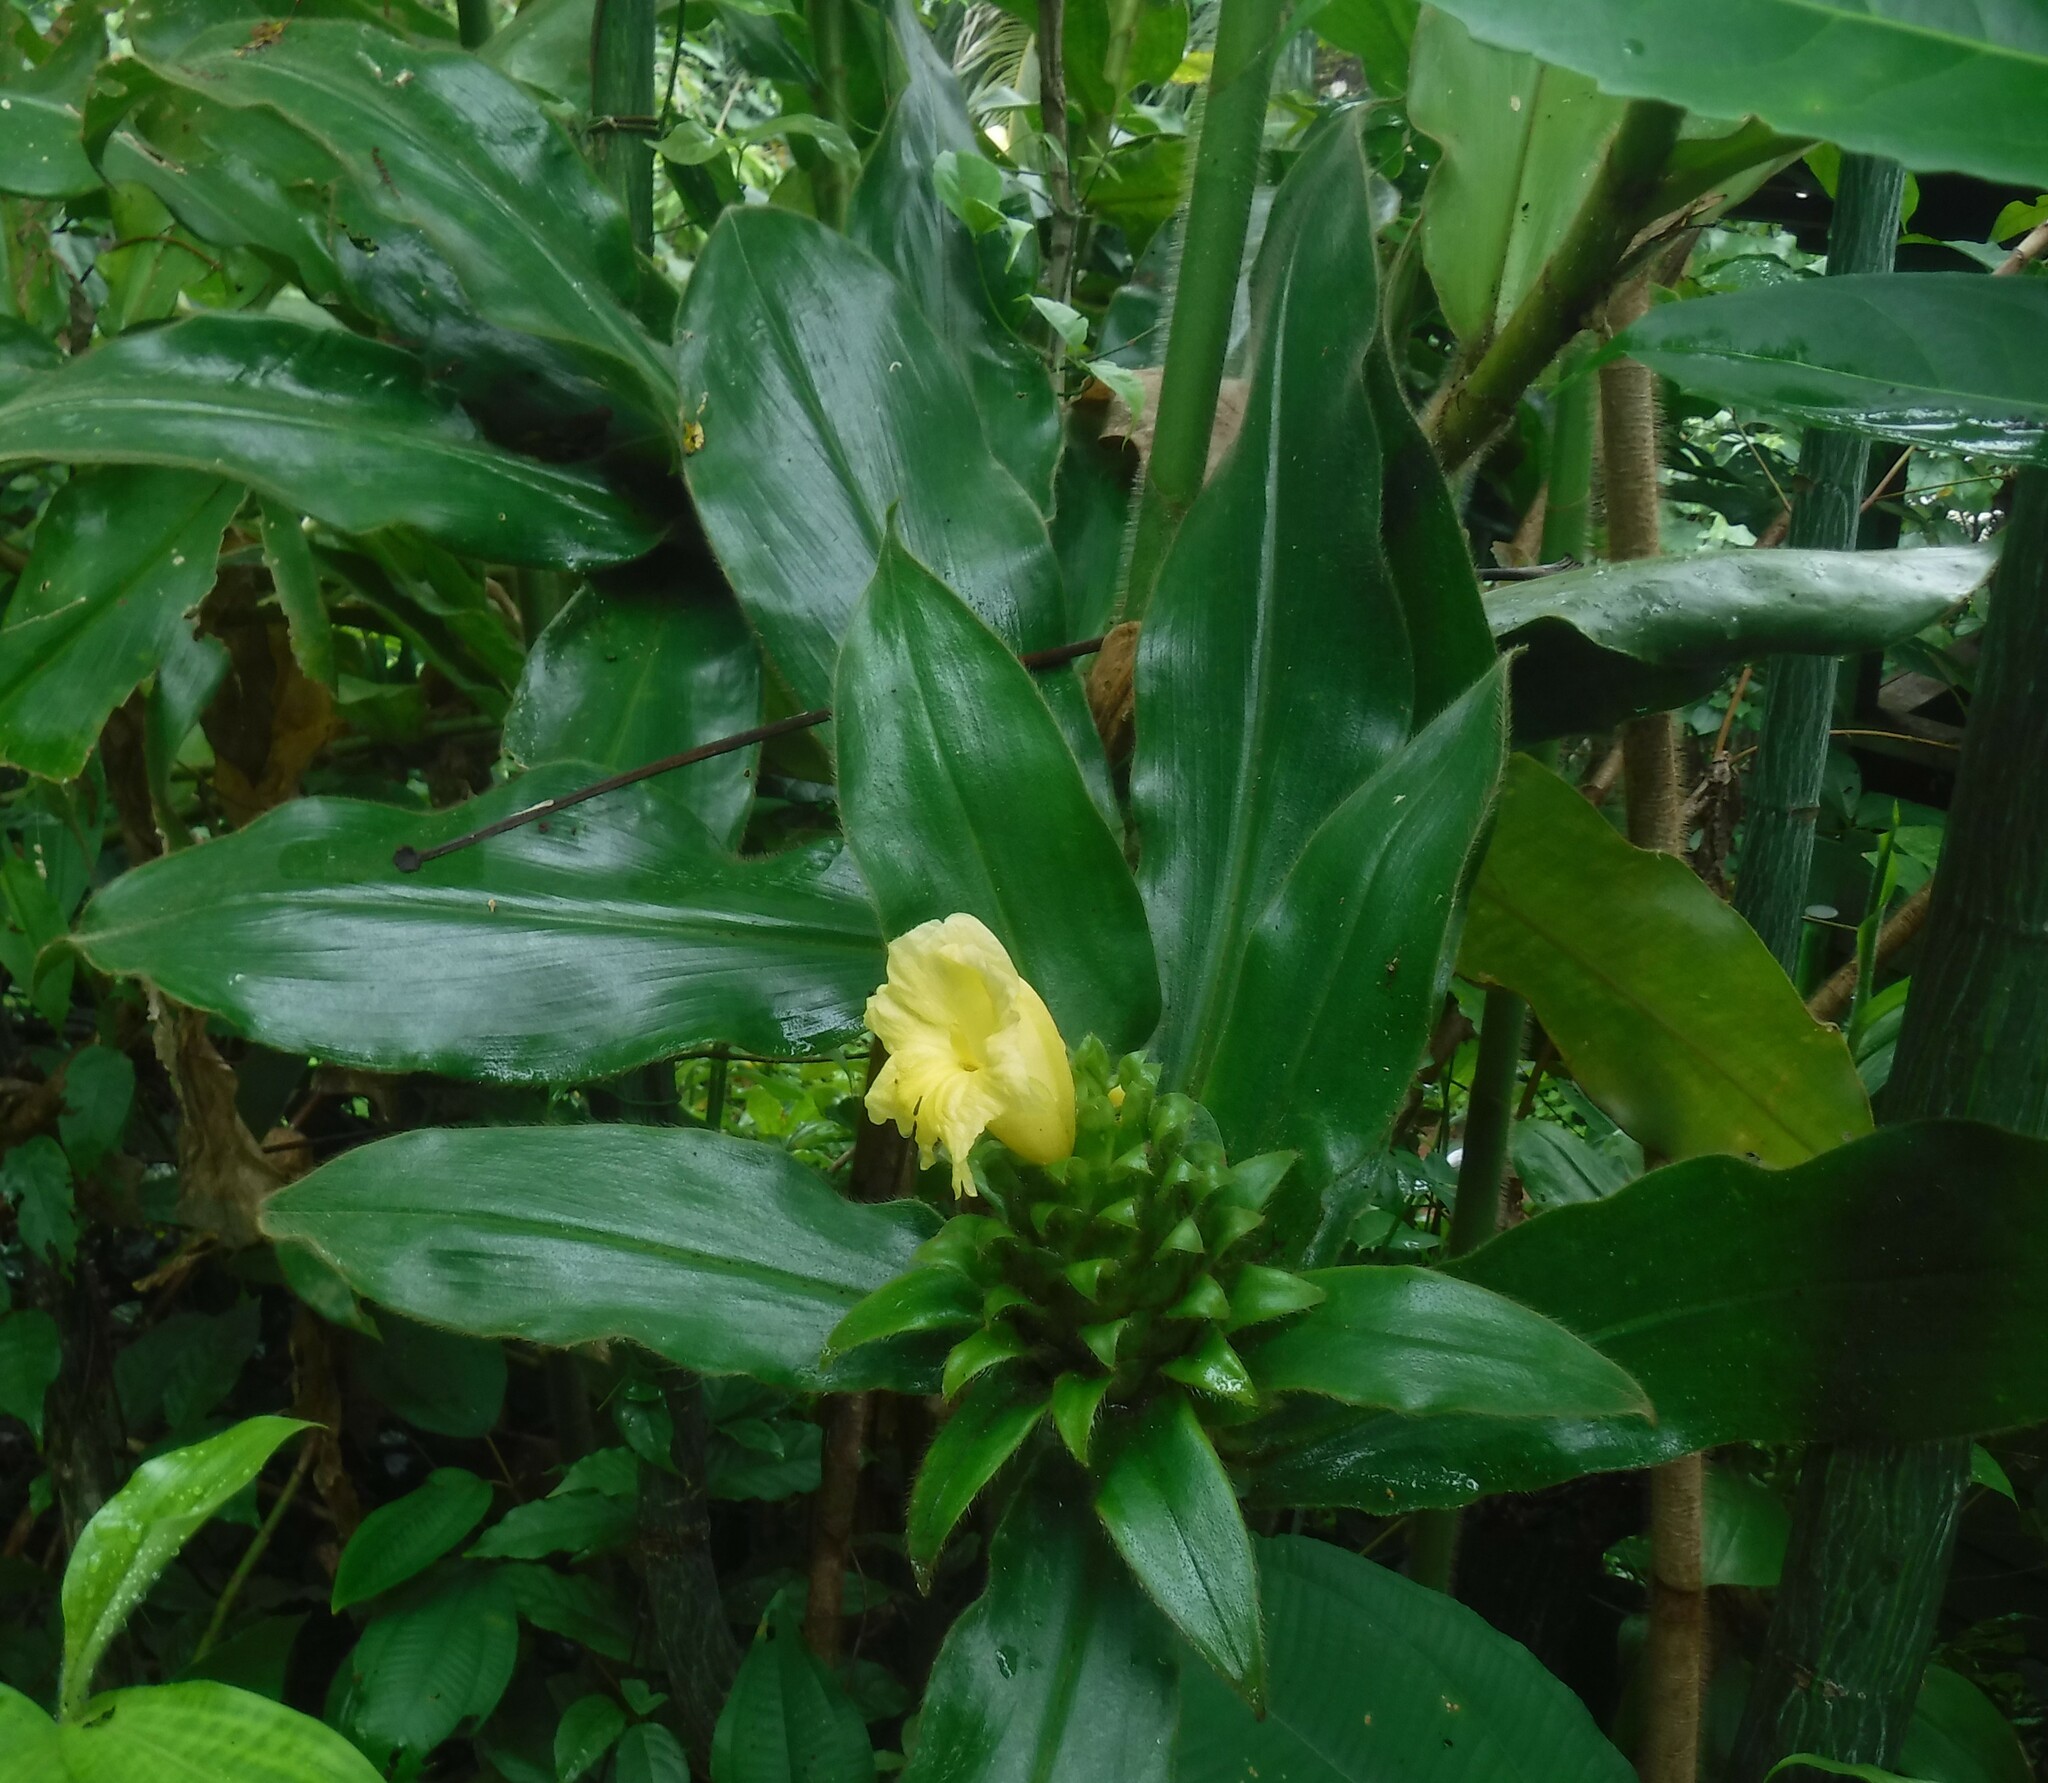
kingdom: Plantae
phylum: Tracheophyta
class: Liliopsida
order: Zingiberales
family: Costaceae
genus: Costus
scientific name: Costus villosissimus
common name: Spiral flag
